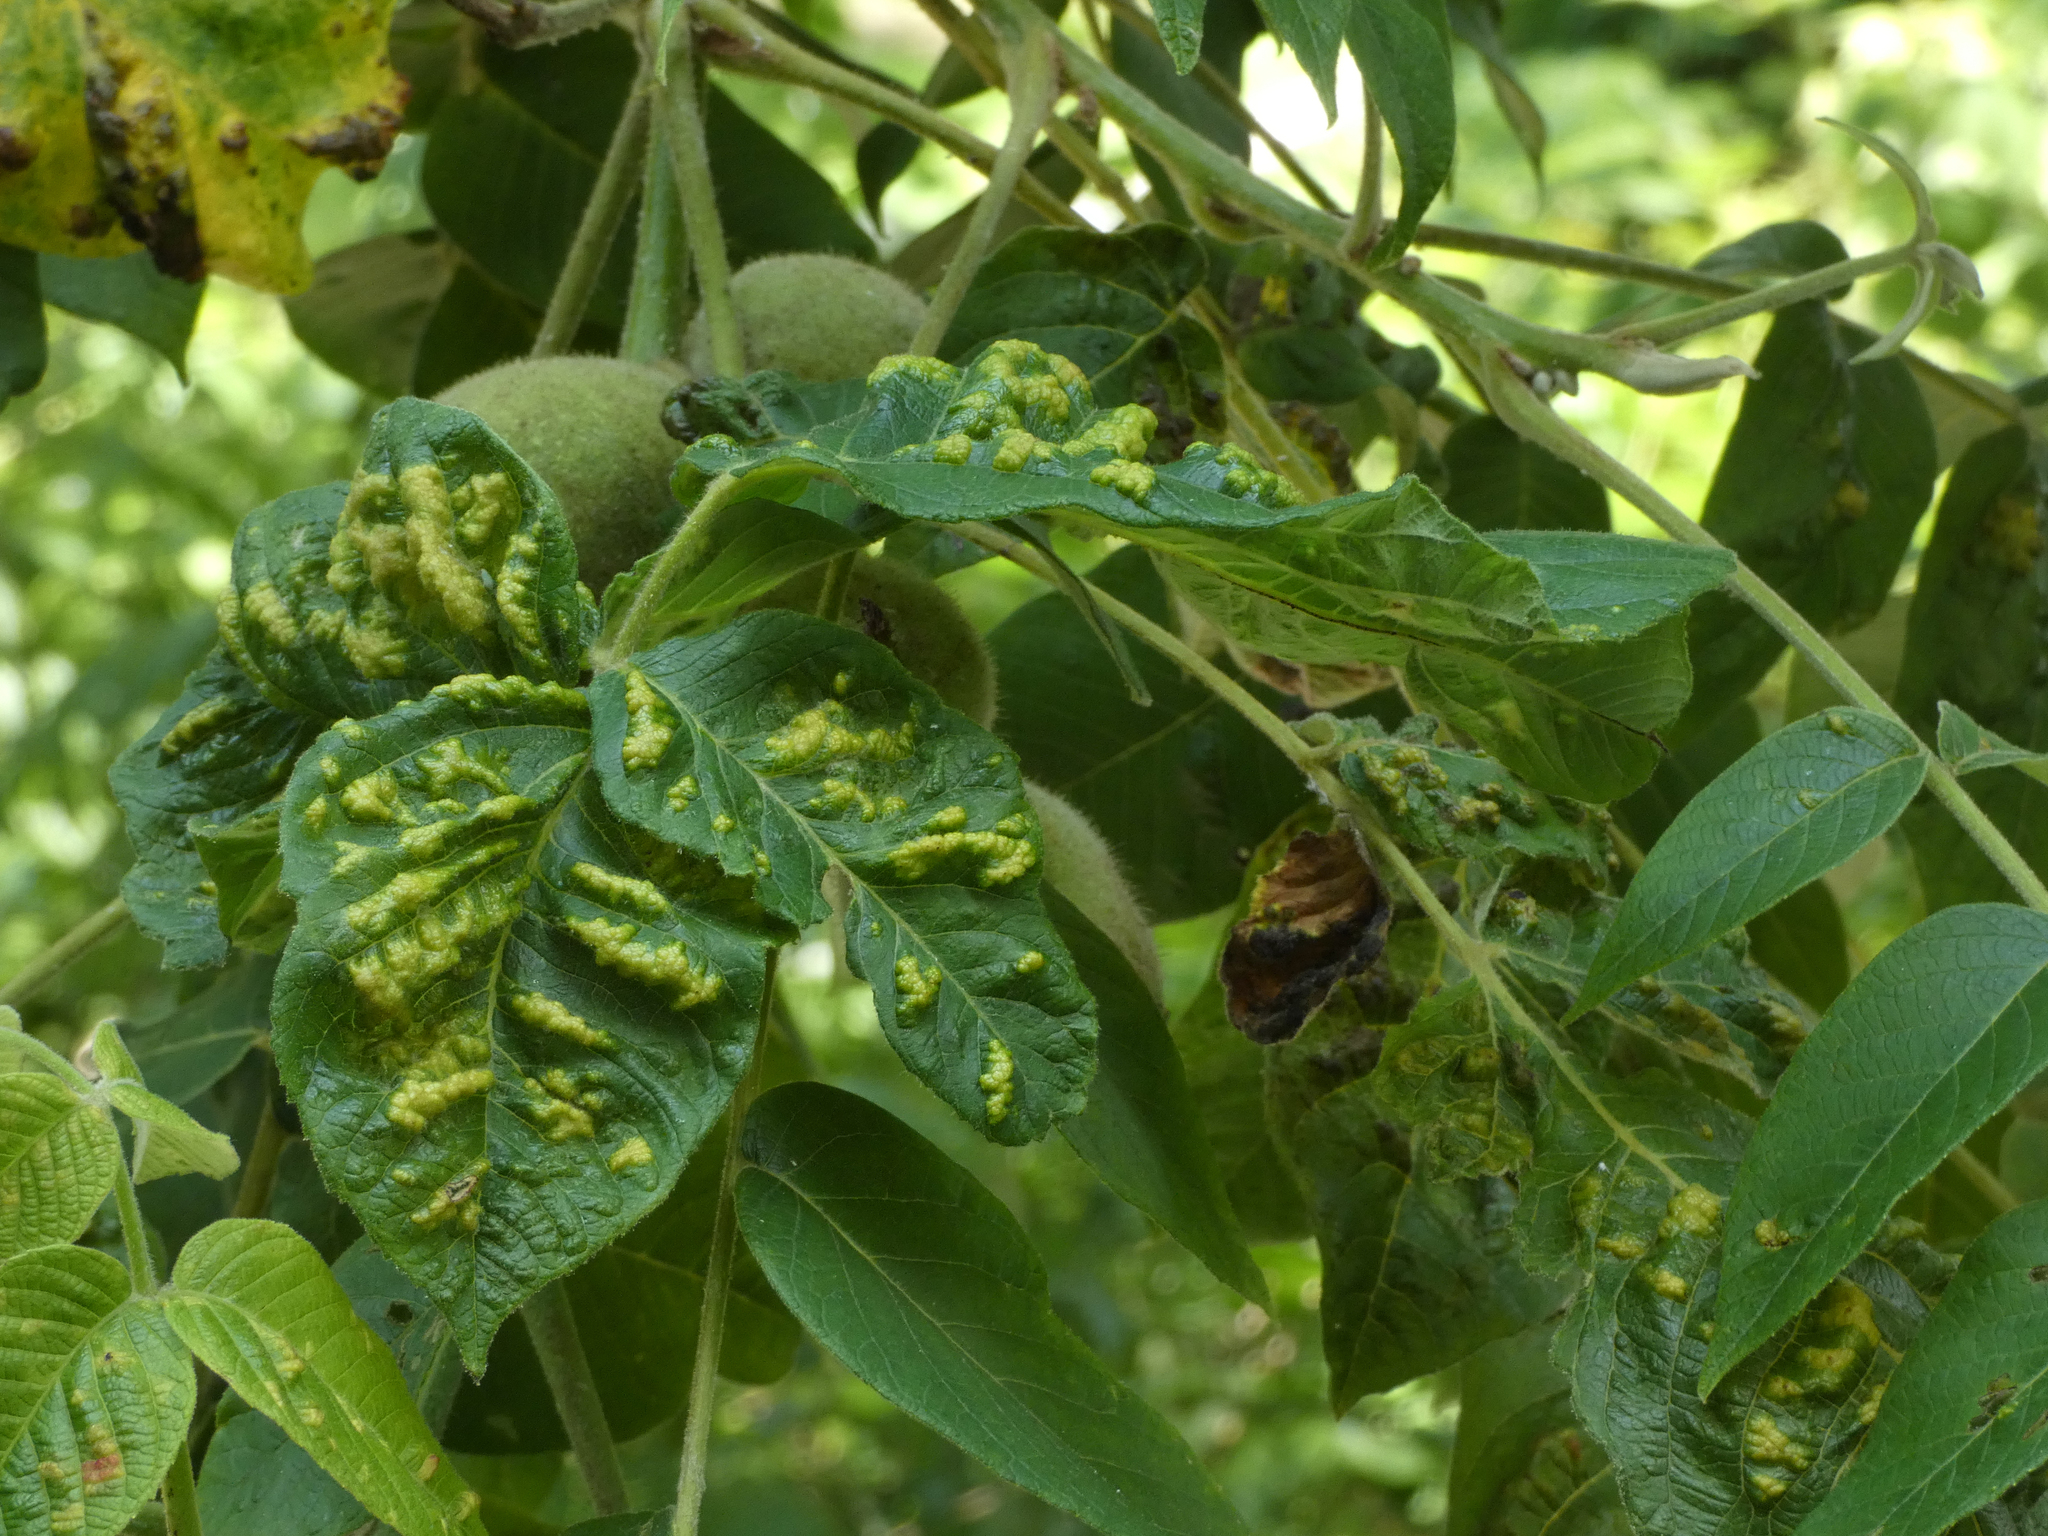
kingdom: Animalia
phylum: Arthropoda
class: Arachnida
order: Trombidiformes
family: Eriophyidae
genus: Aceria
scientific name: Aceria
